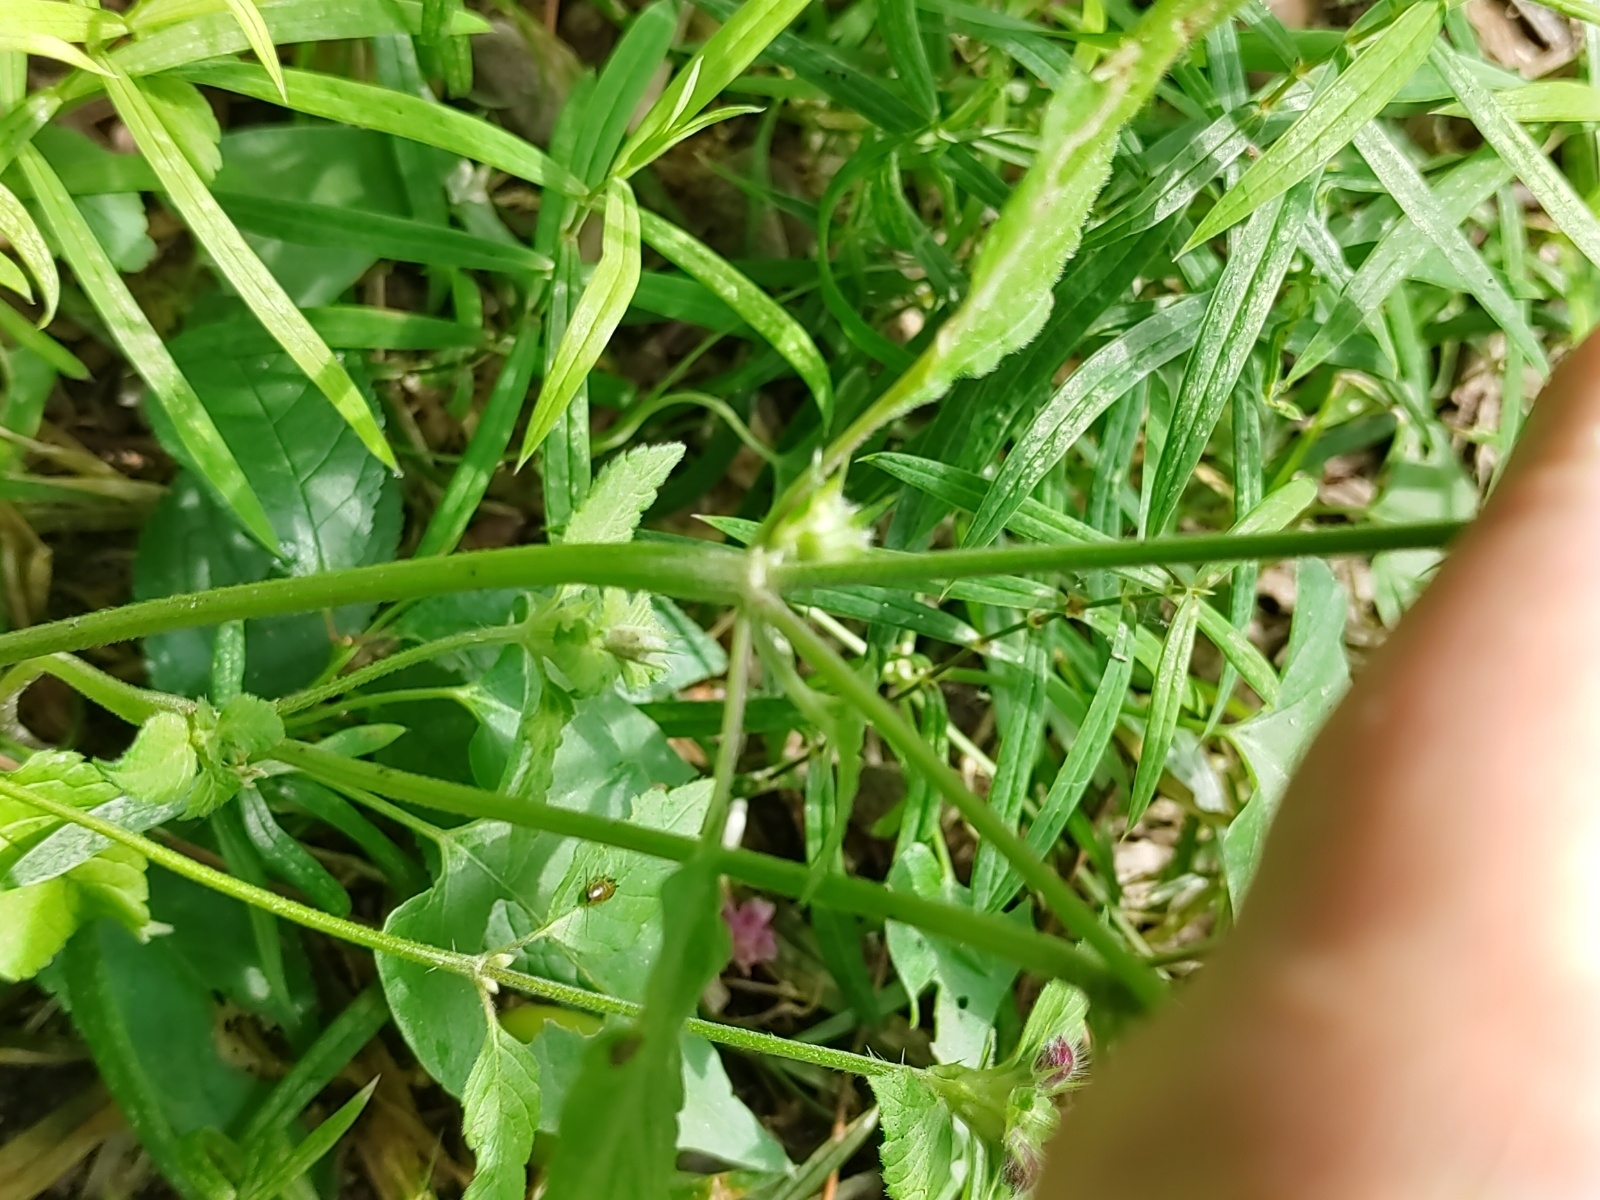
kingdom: Plantae
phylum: Tracheophyta
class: Magnoliopsida
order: Lamiales
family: Lamiaceae
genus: Galeopsis
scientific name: Galeopsis pubescens
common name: Downy hemp-nettle
